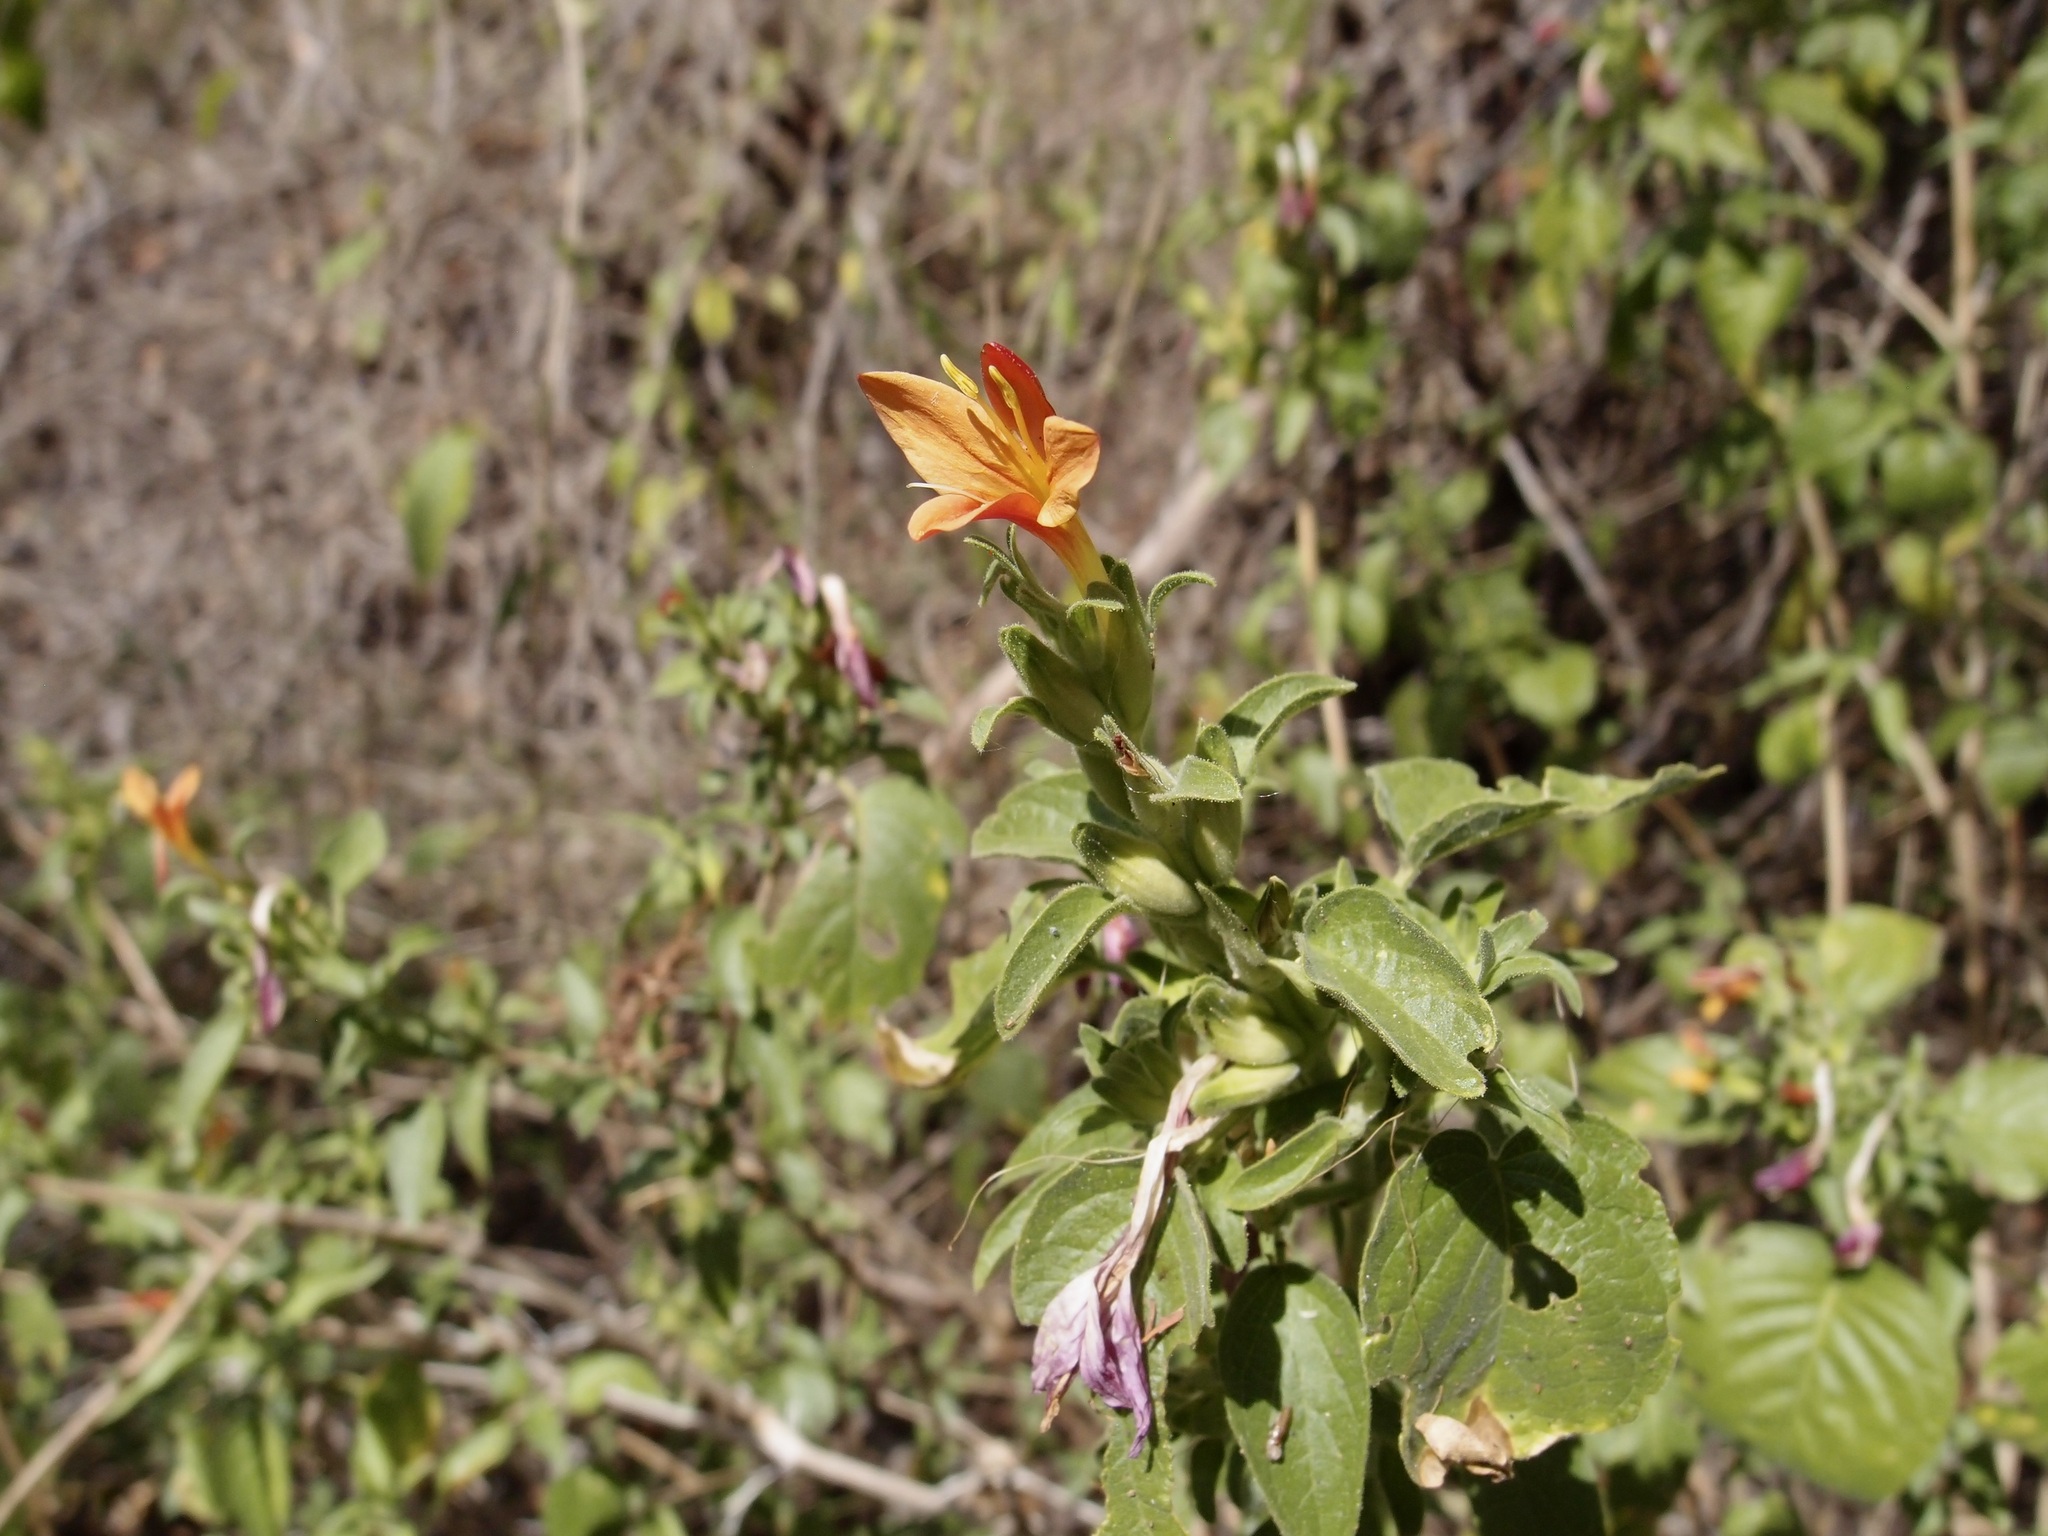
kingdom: Plantae
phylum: Tracheophyta
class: Magnoliopsida
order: Lamiales
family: Acanthaceae
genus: Tetramerium
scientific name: Tetramerium abditum
